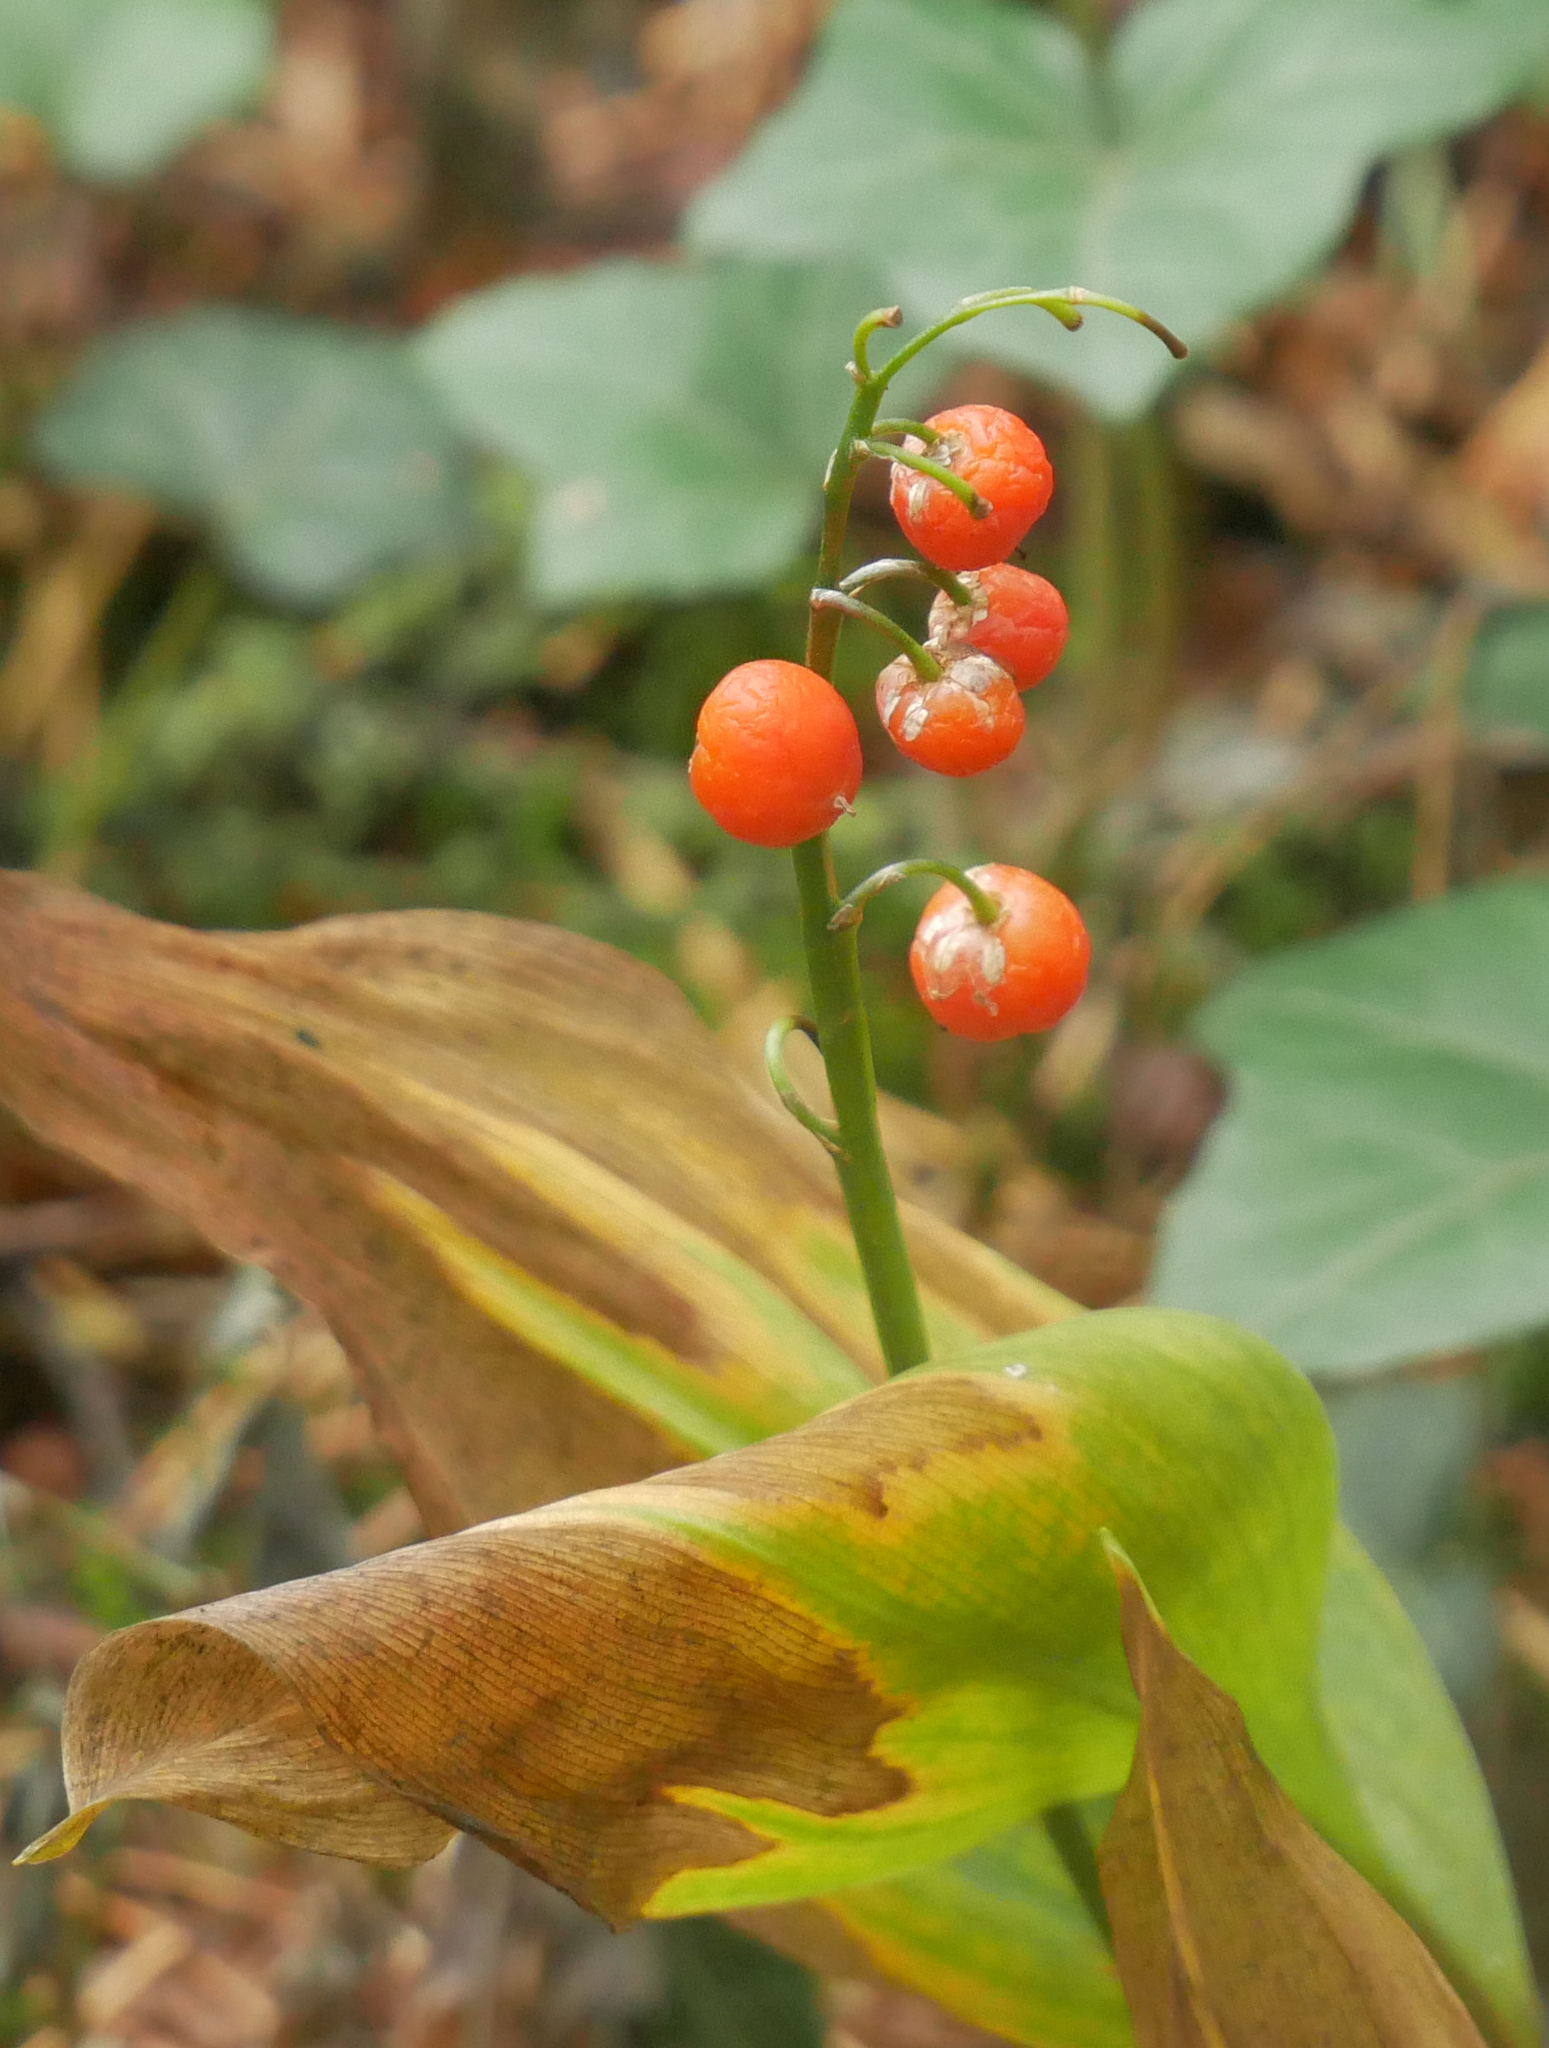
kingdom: Plantae
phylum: Tracheophyta
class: Liliopsida
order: Asparagales
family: Asparagaceae
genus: Convallaria
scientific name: Convallaria majalis
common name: Lily-of-the-valley
